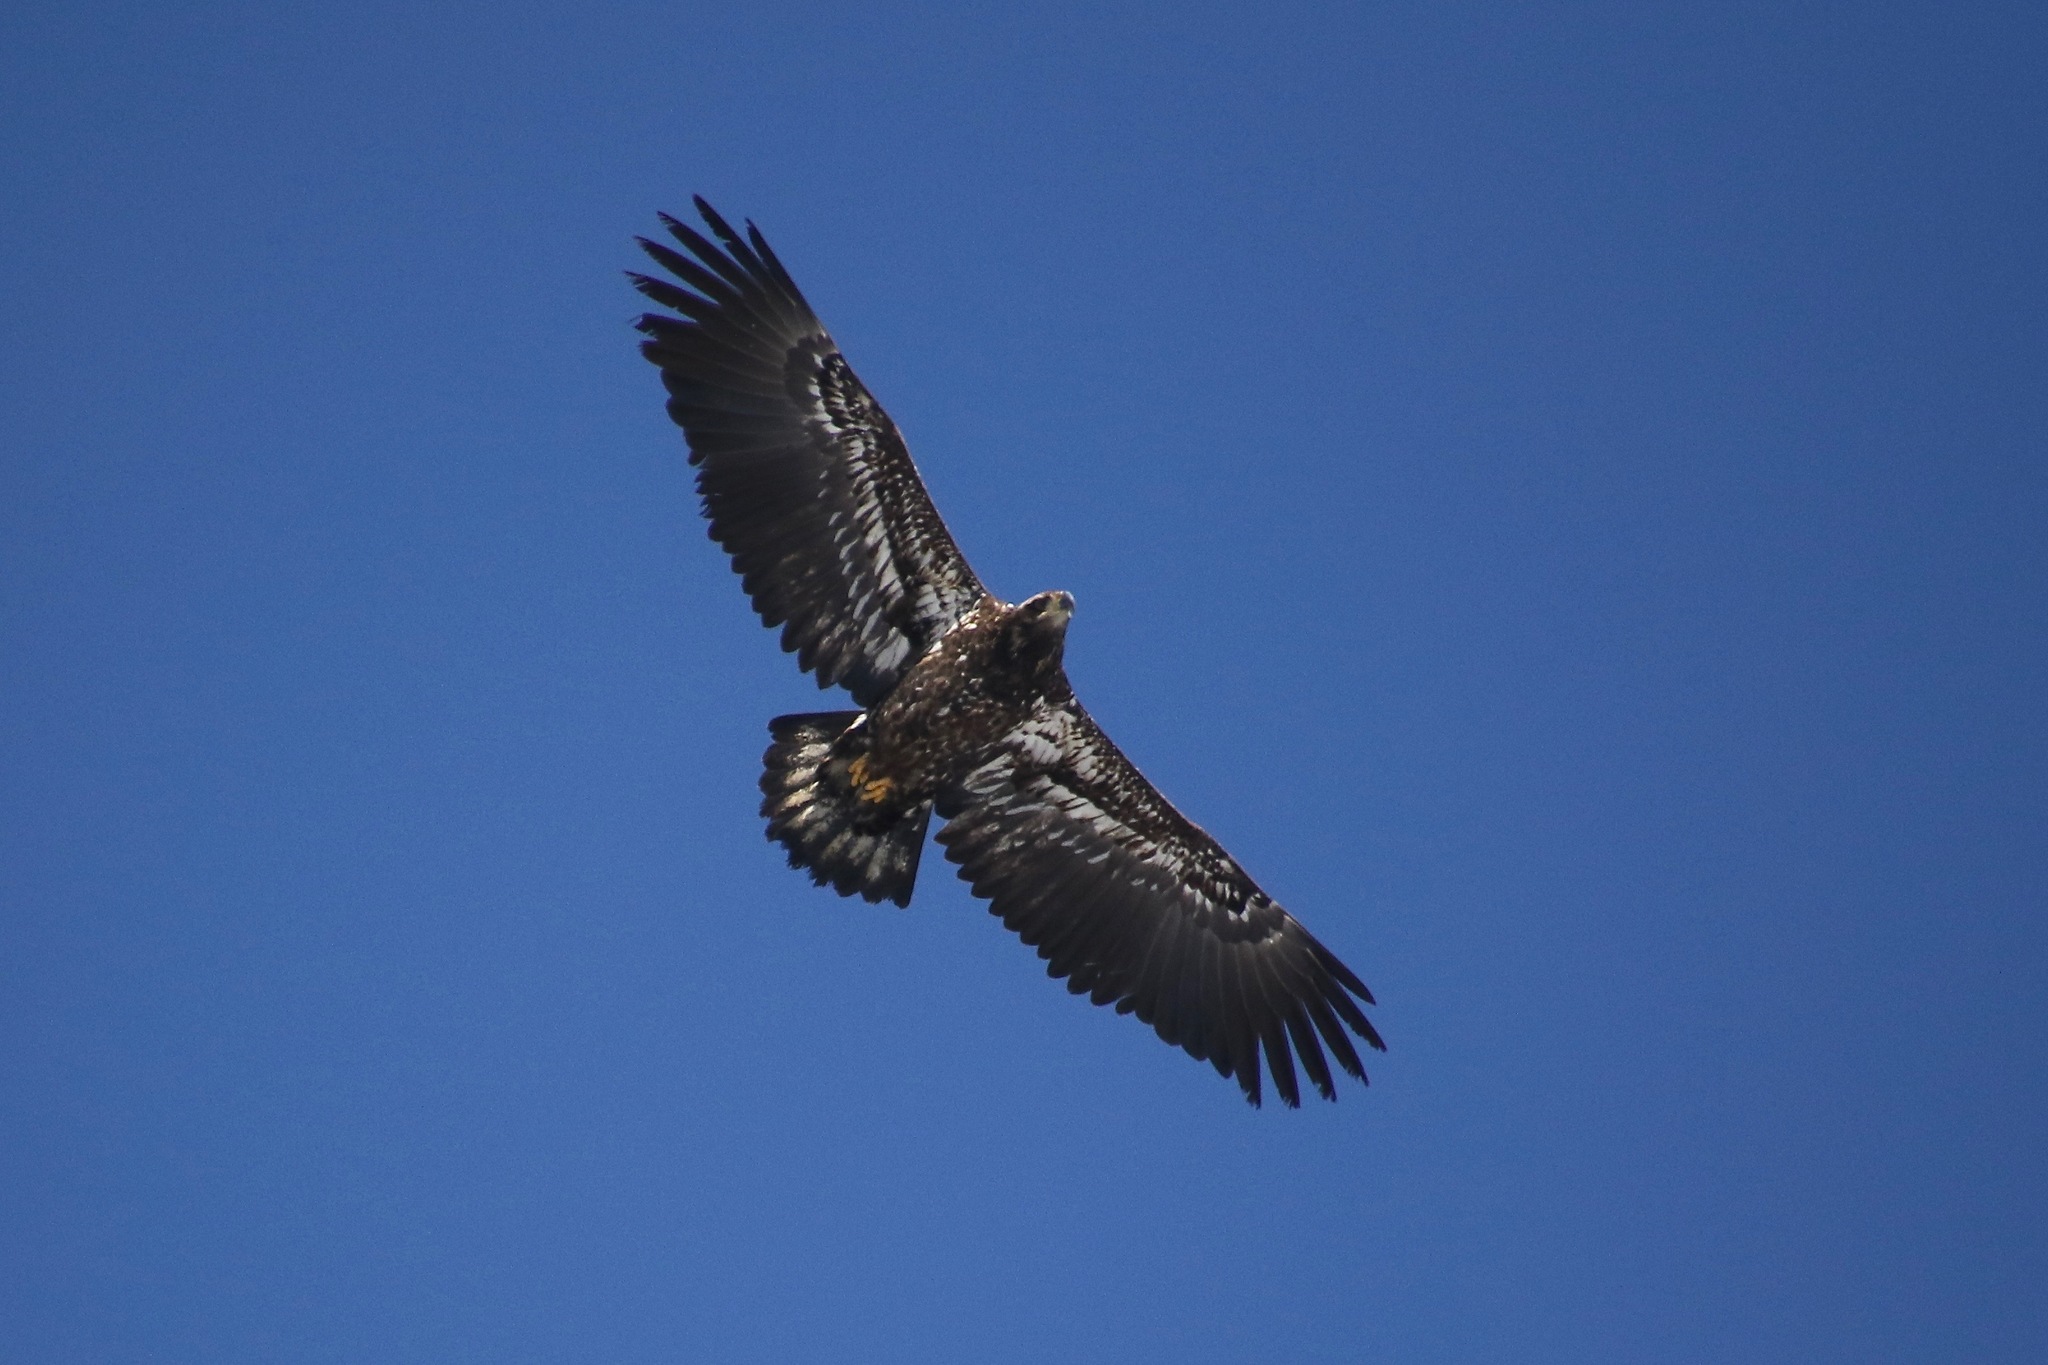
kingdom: Animalia
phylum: Chordata
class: Aves
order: Accipitriformes
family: Accipitridae
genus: Haliaeetus
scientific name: Haliaeetus leucocephalus
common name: Bald eagle
